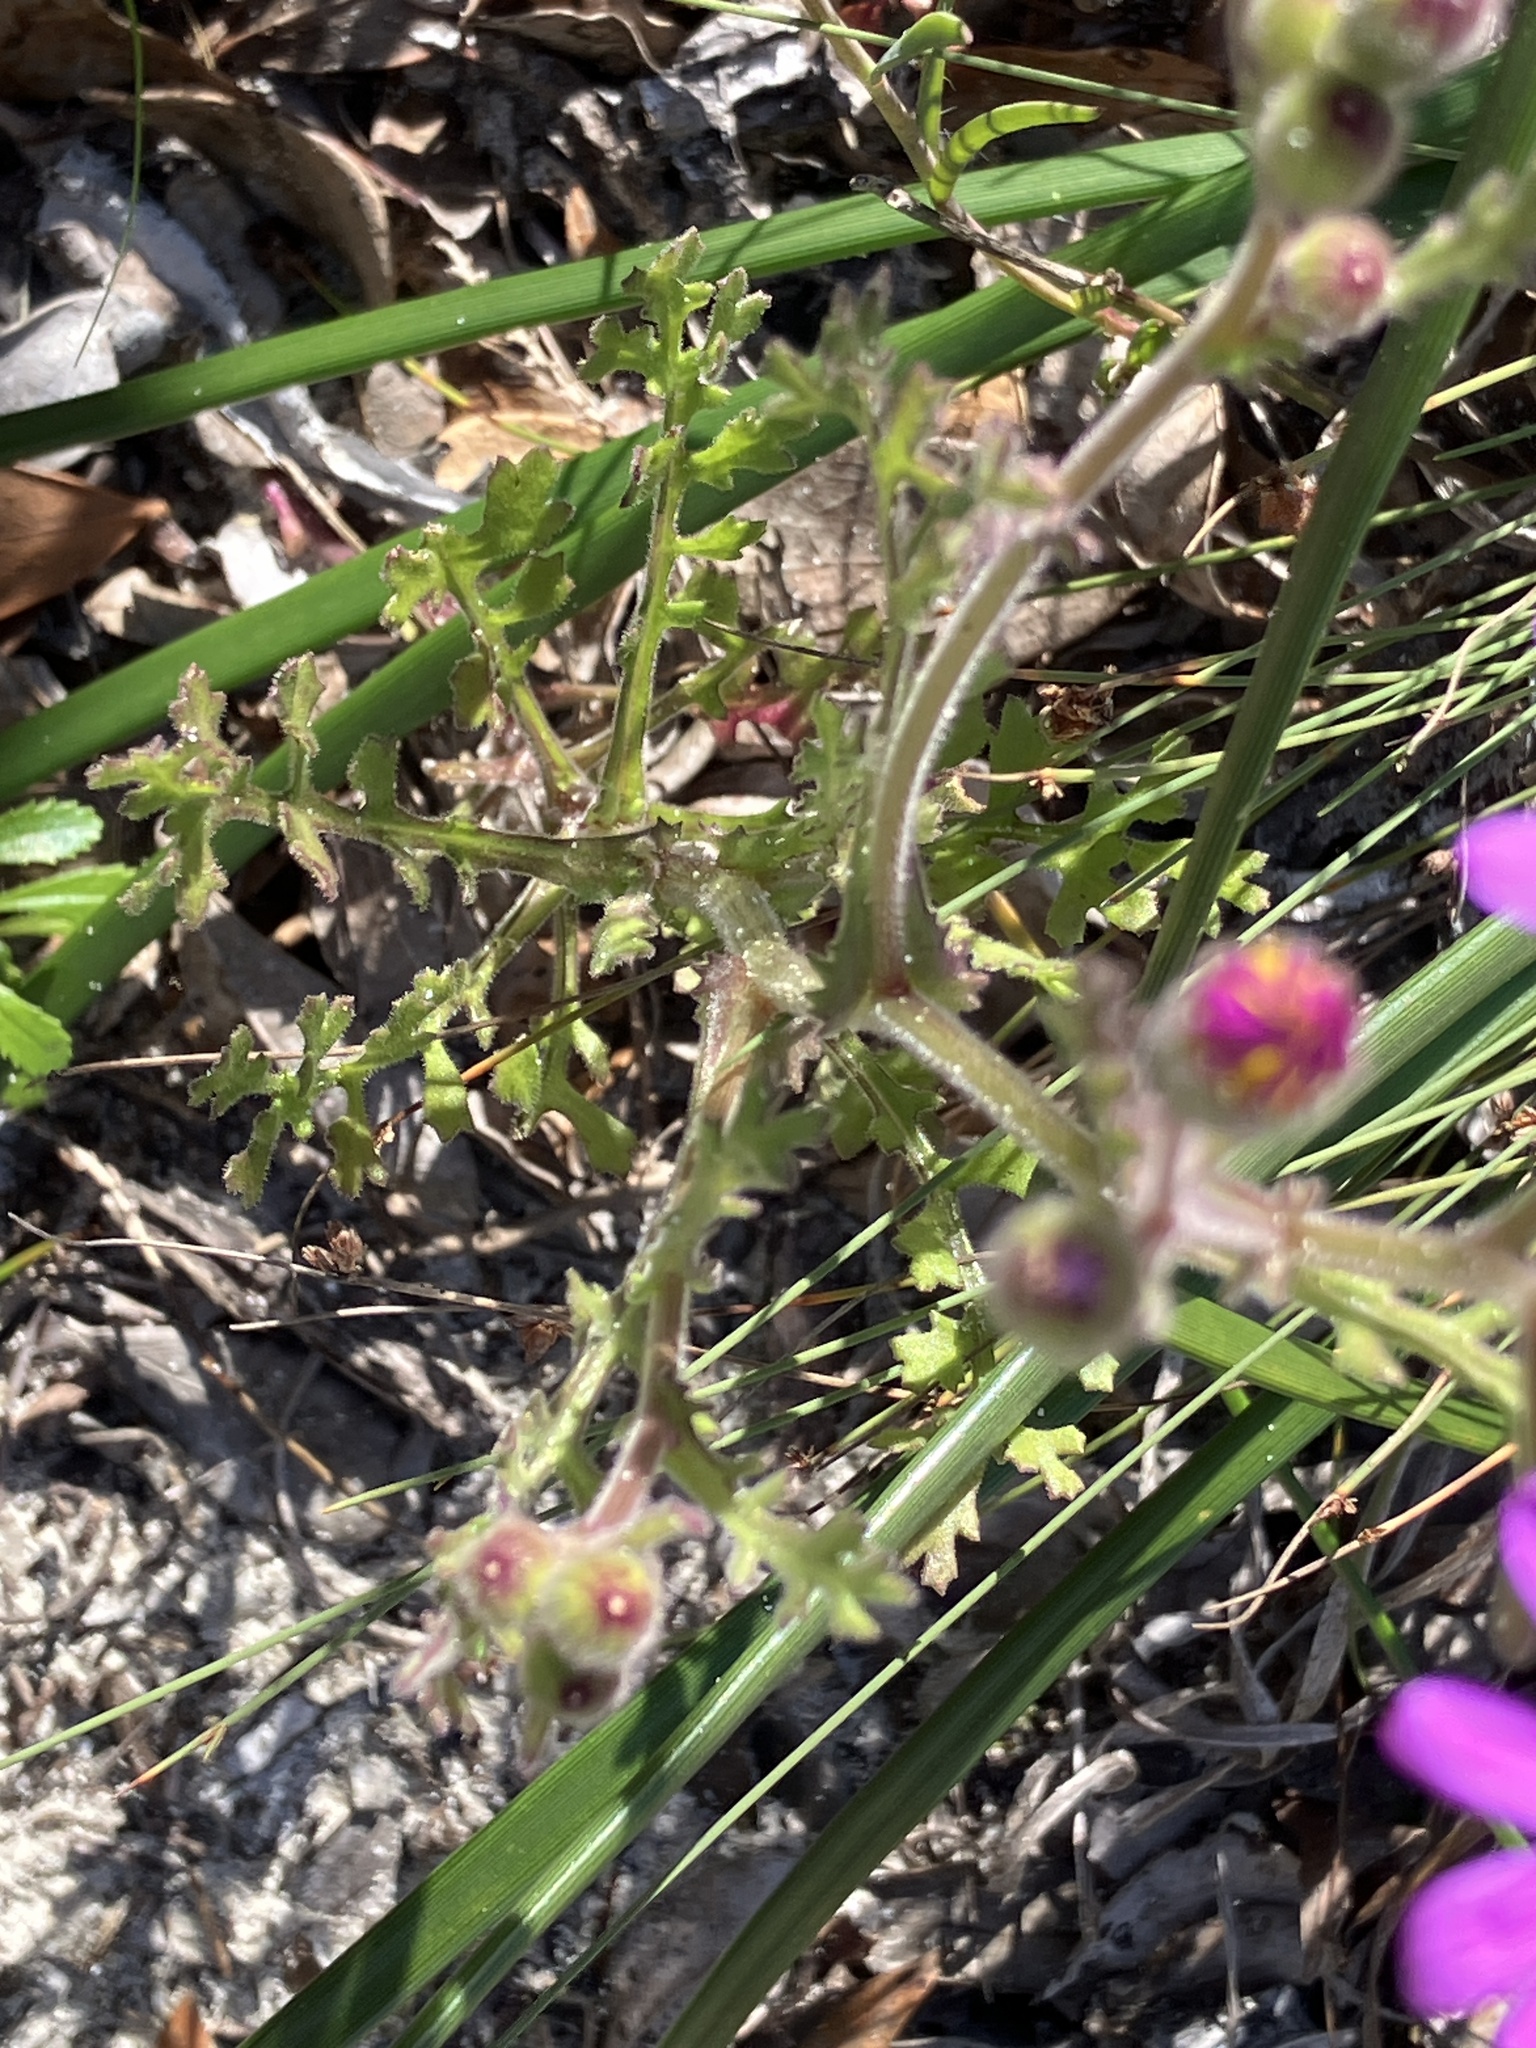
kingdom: Plantae
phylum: Tracheophyta
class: Magnoliopsida
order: Asterales
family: Asteraceae
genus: Senecio
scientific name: Senecio arenarius
